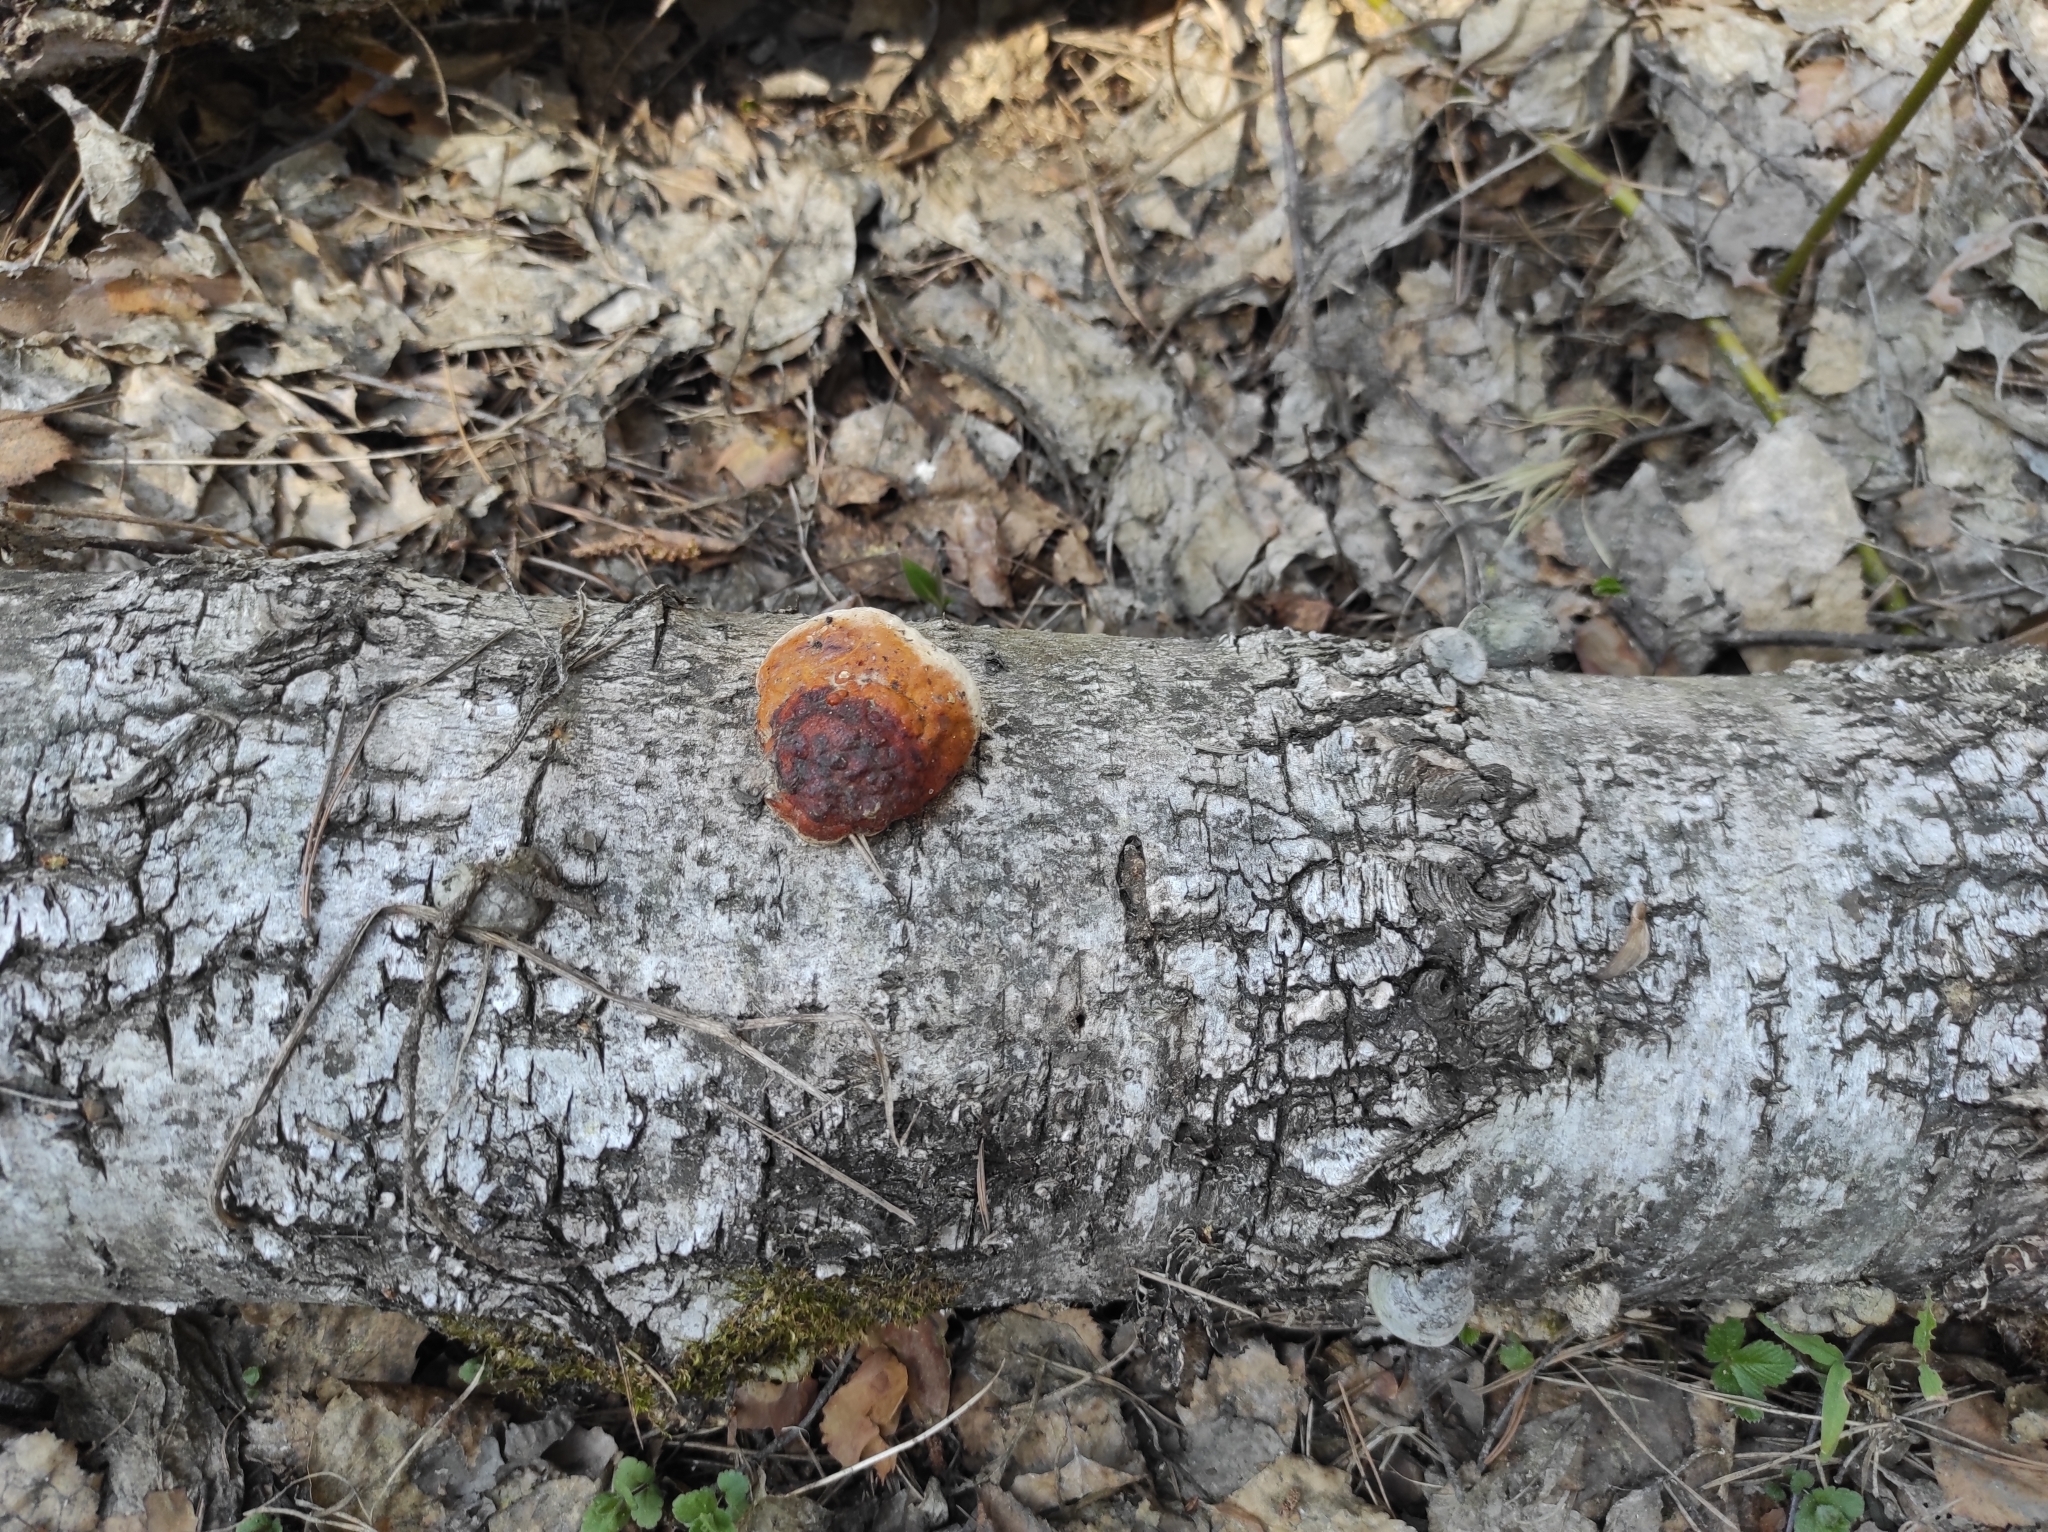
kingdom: Fungi
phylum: Basidiomycota
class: Agaricomycetes
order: Polyporales
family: Fomitopsidaceae
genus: Fomitopsis
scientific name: Fomitopsis pinicola
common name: Red-belted bracket
